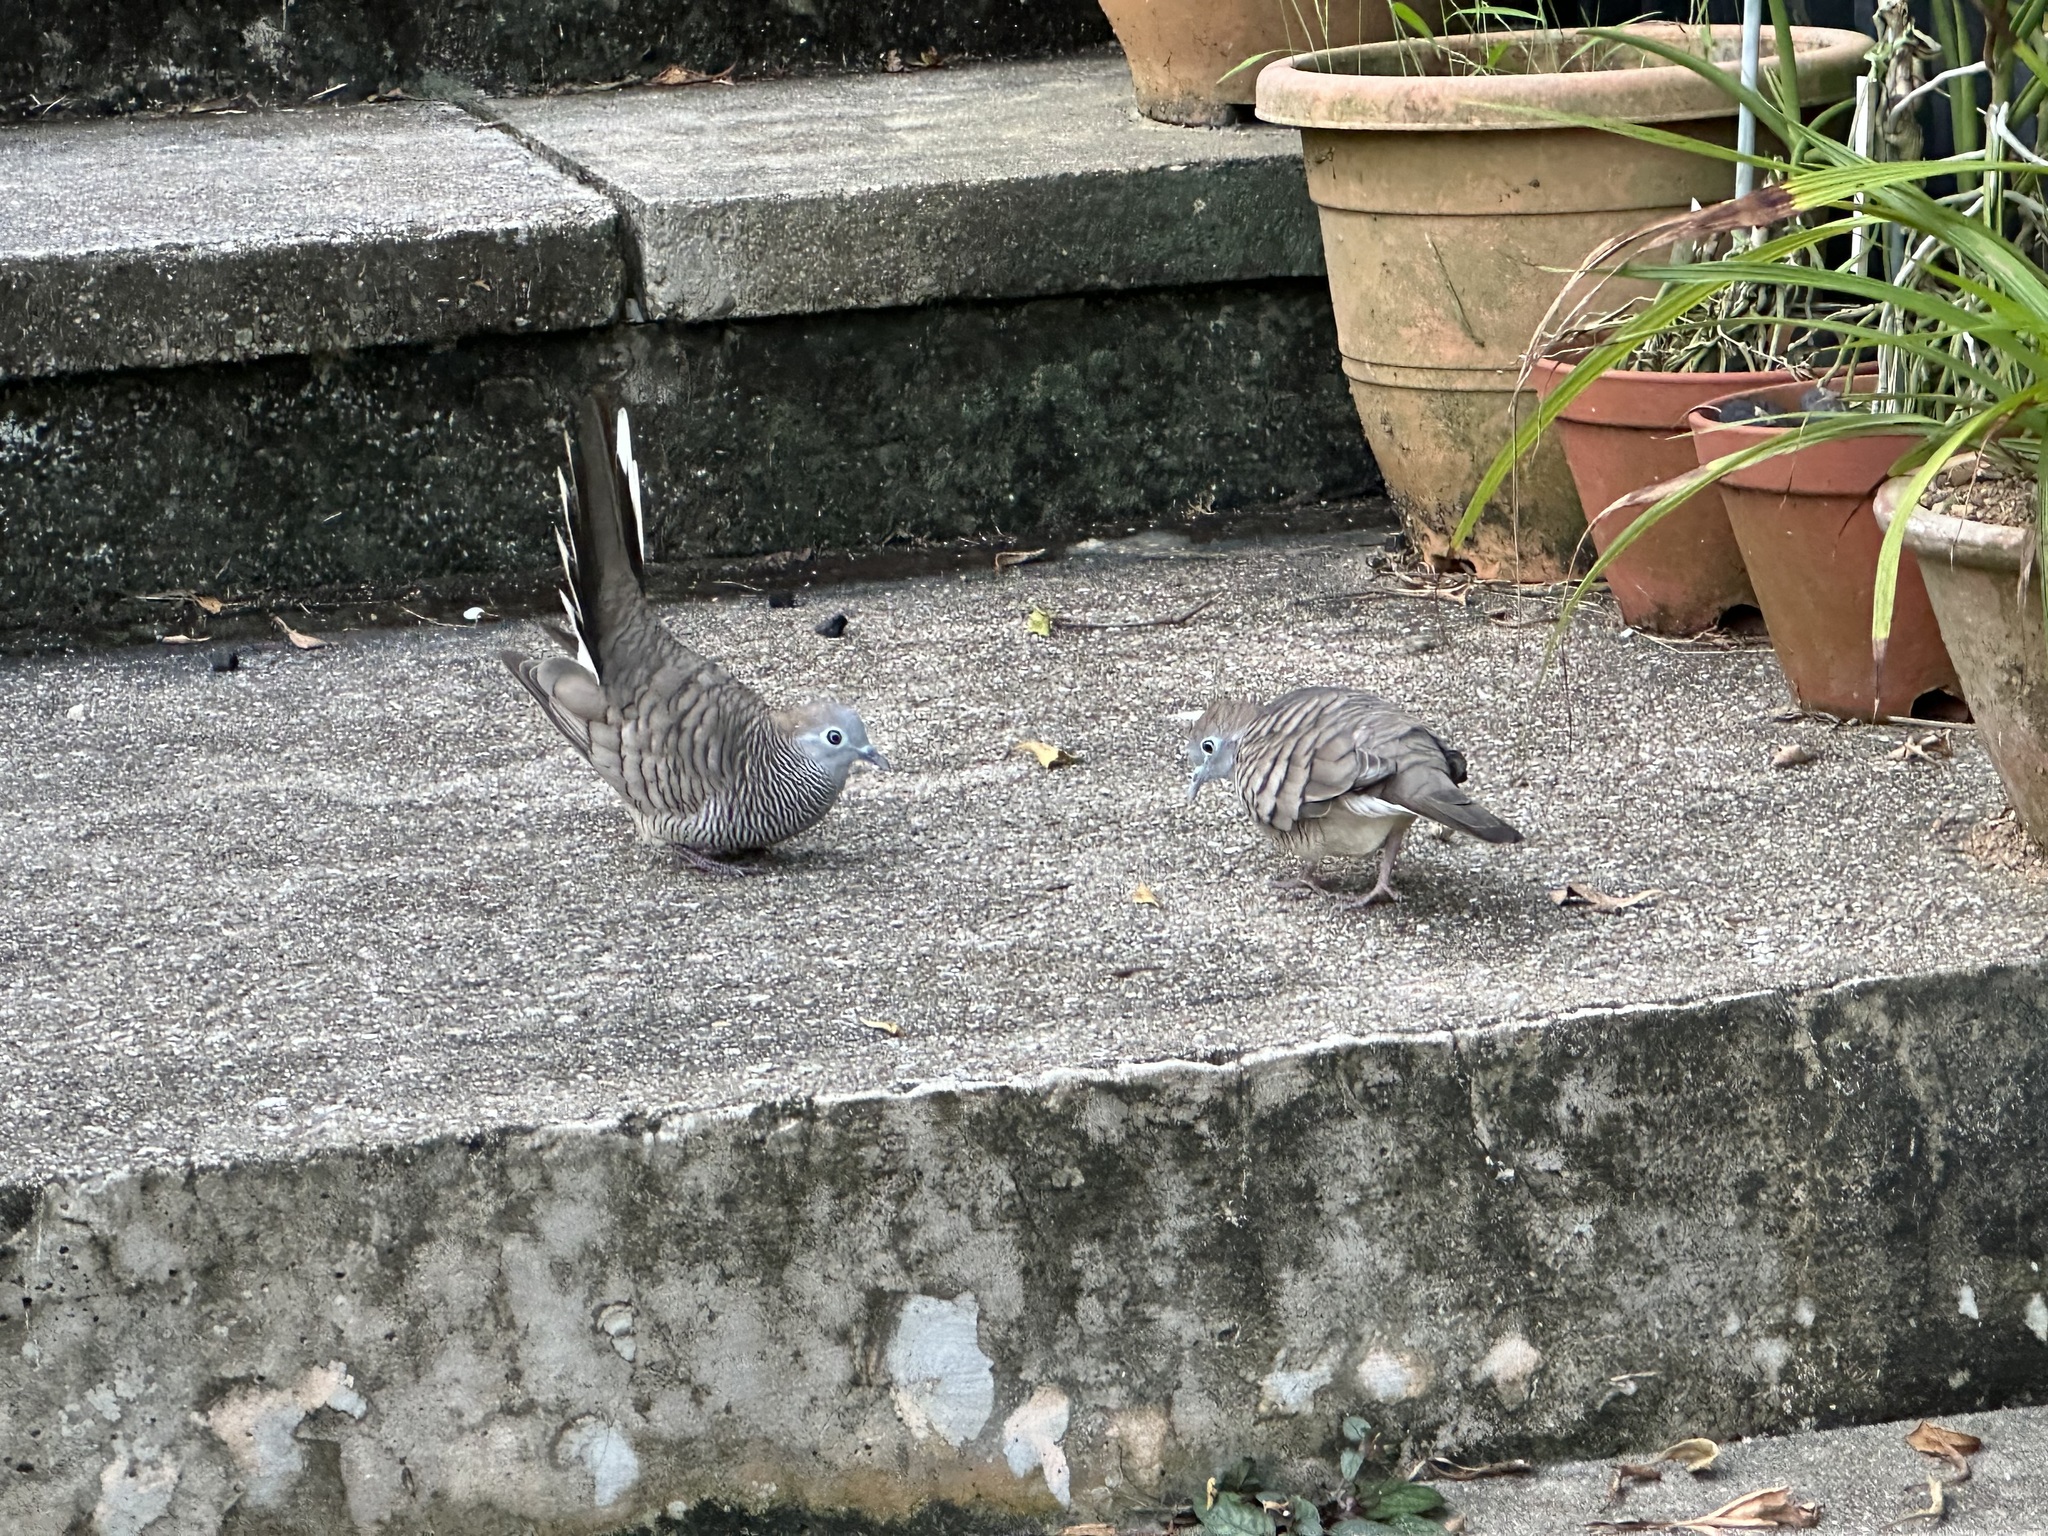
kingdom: Animalia
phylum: Chordata
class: Aves
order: Columbiformes
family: Columbidae
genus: Geopelia
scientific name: Geopelia striata
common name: Zebra dove
